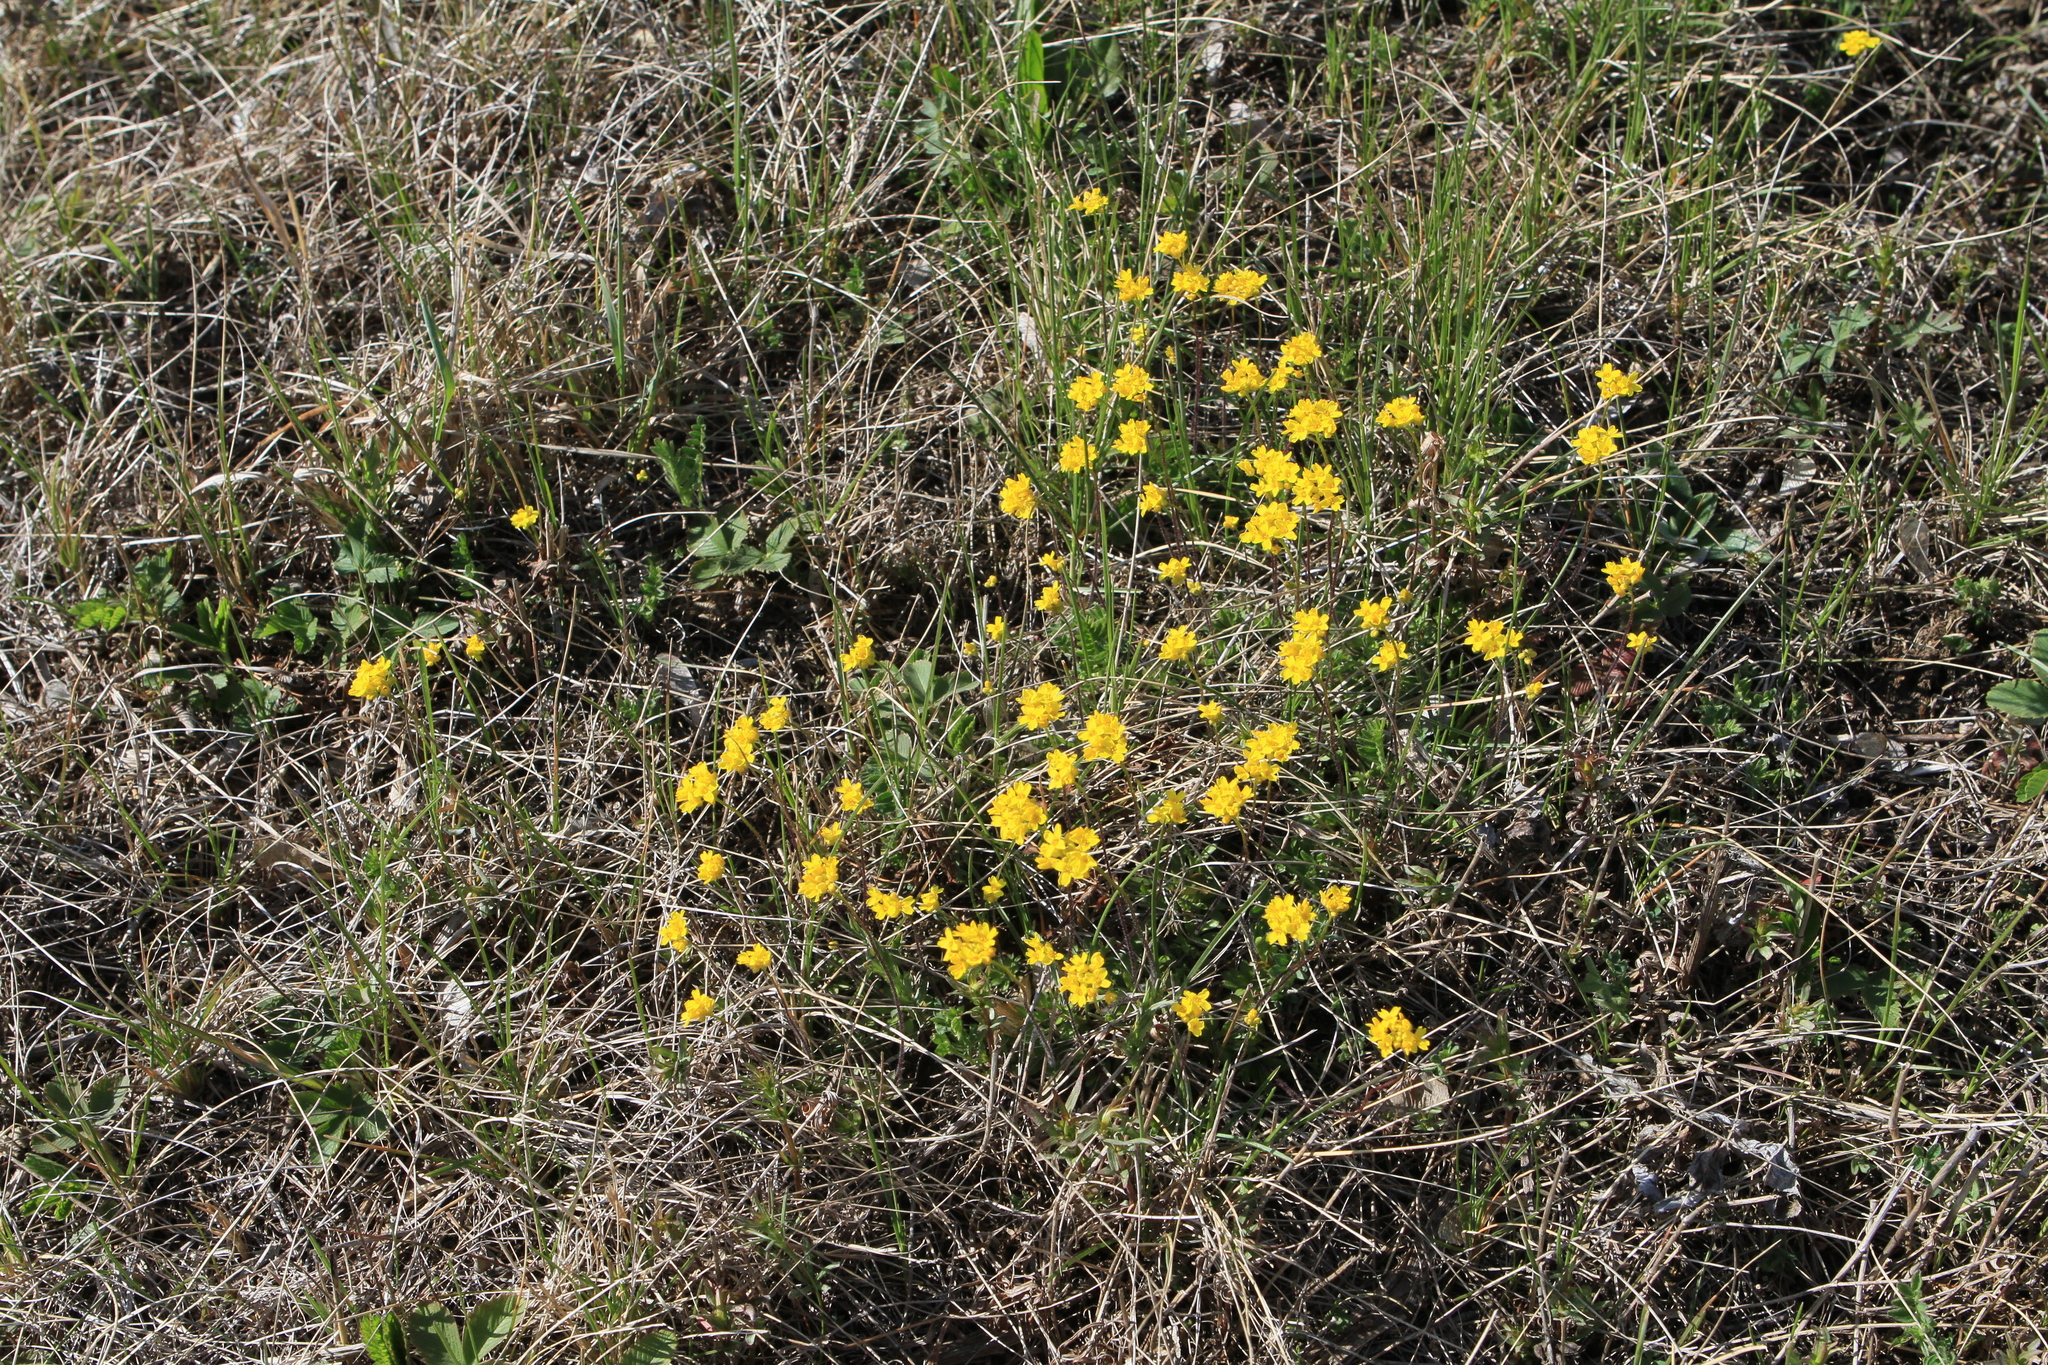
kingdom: Plantae
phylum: Tracheophyta
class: Magnoliopsida
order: Brassicales
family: Brassicaceae
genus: Draba
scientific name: Draba sibirica
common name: Siberian draba
